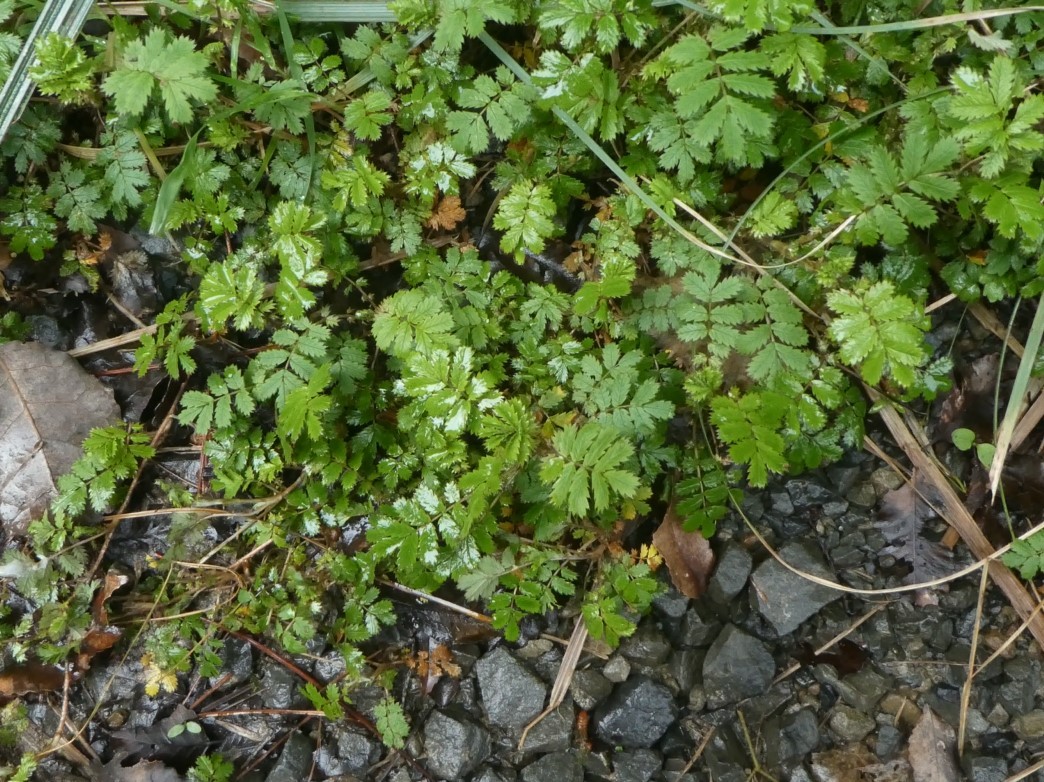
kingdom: Plantae
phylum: Tracheophyta
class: Magnoliopsida
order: Rosales
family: Rosaceae
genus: Acaena
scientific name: Acaena anserinifolia
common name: Bronze pirri-pirri-bur
